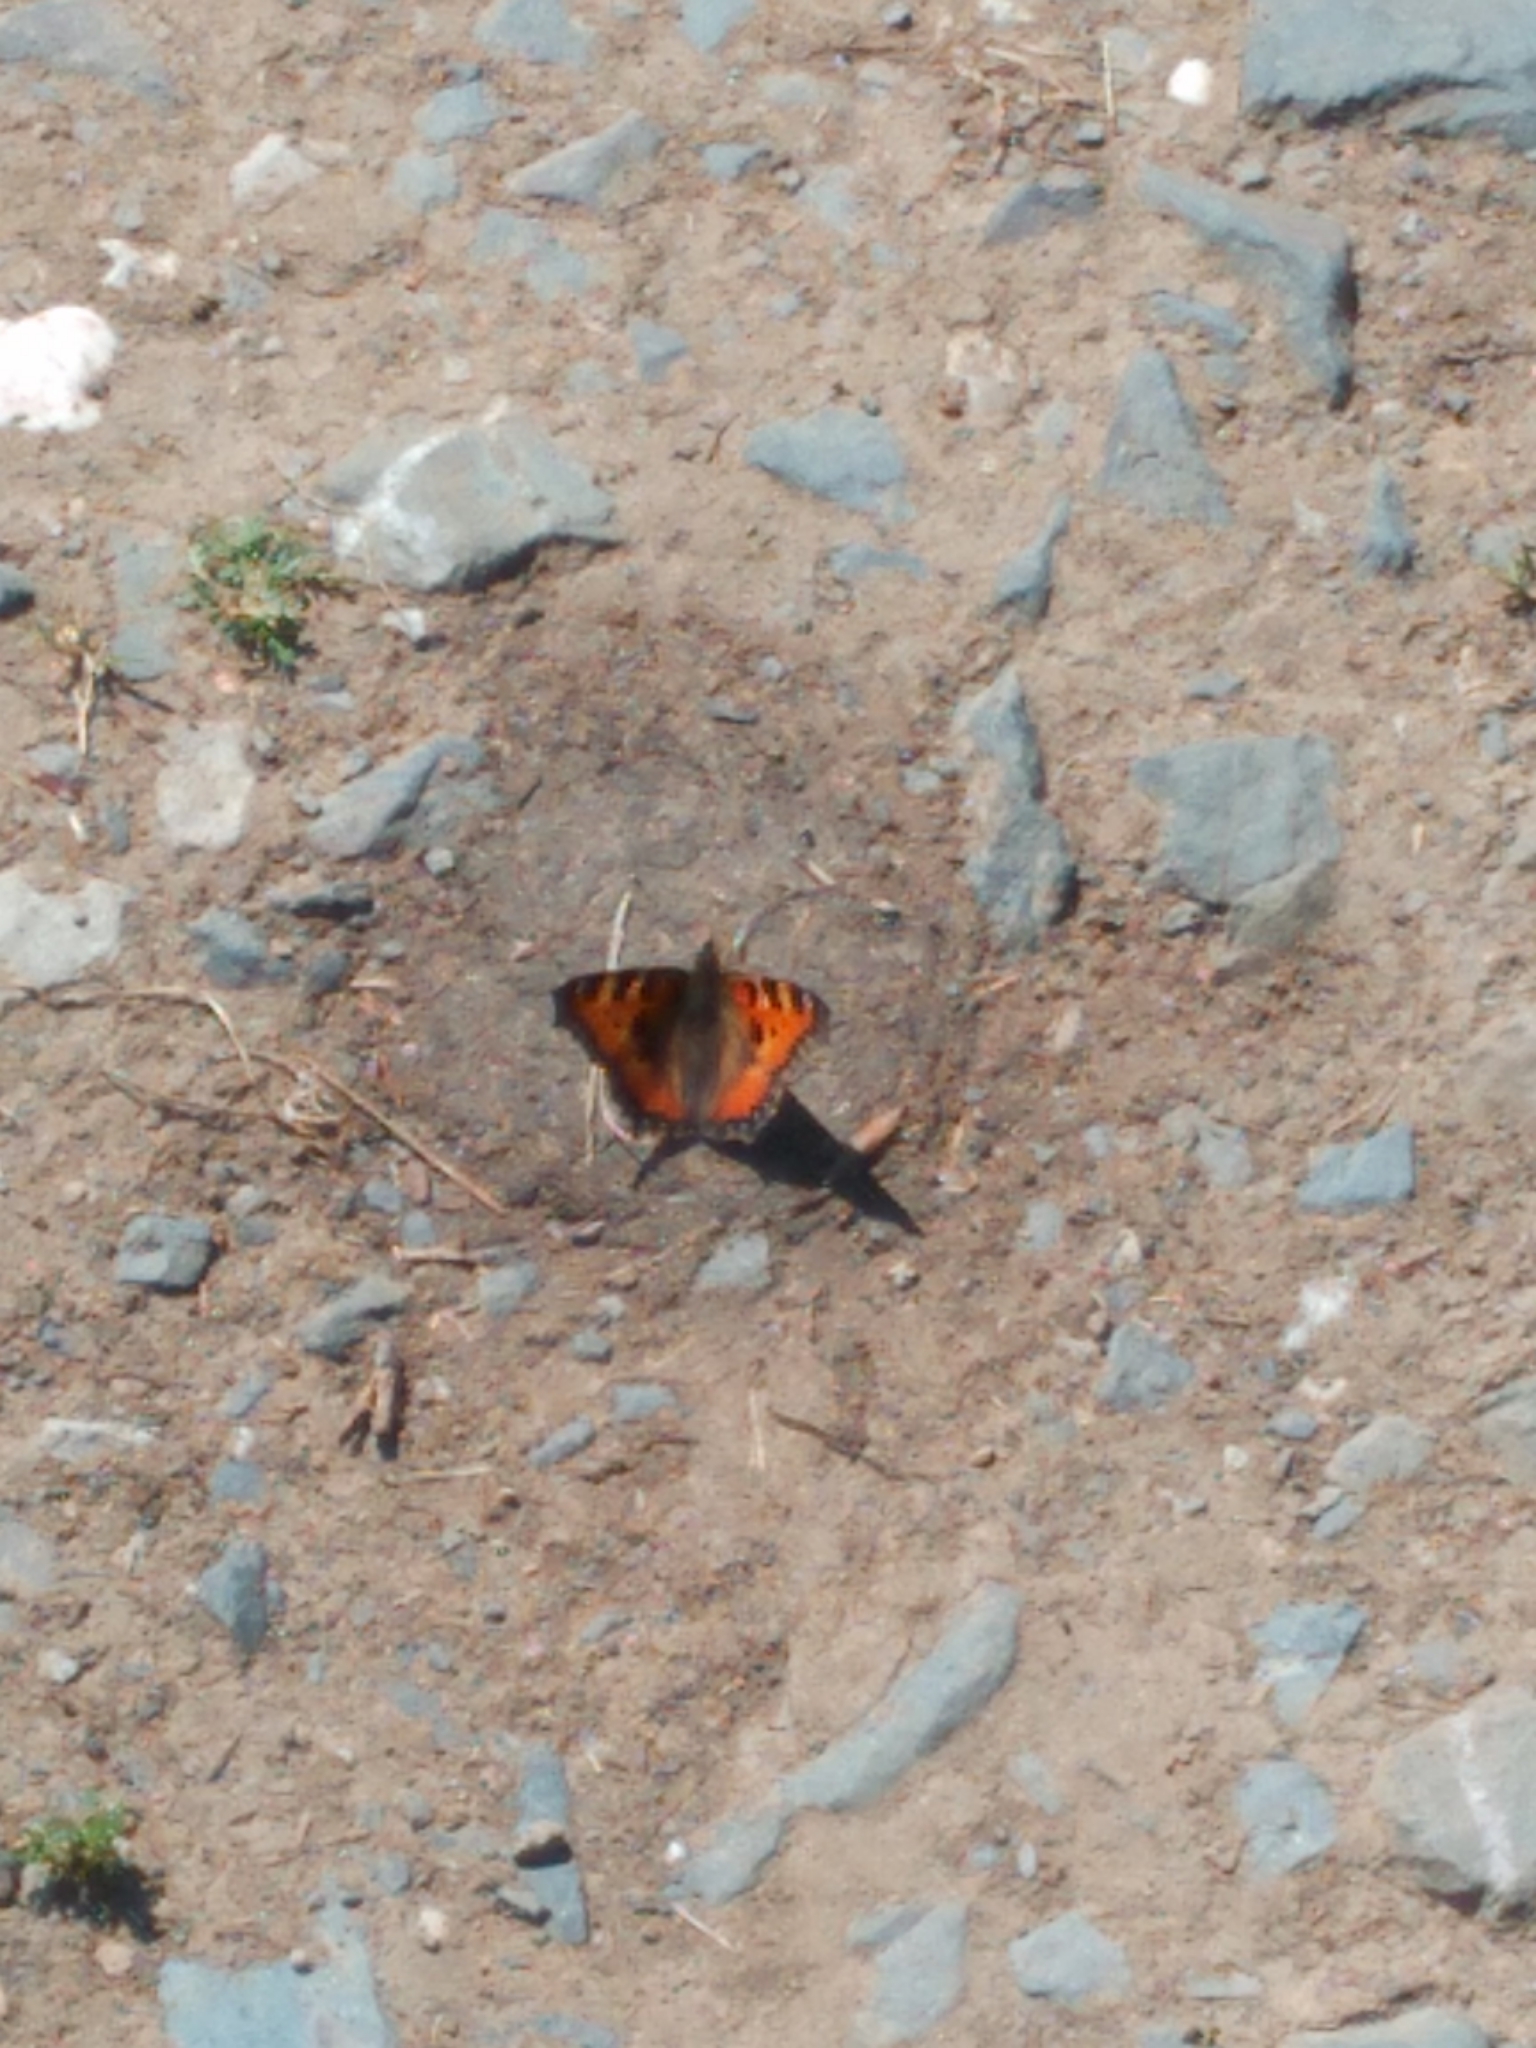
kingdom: Animalia
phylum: Arthropoda
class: Insecta
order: Lepidoptera
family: Nymphalidae
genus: Aglais
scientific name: Aglais urticae
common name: Small tortoiseshell
